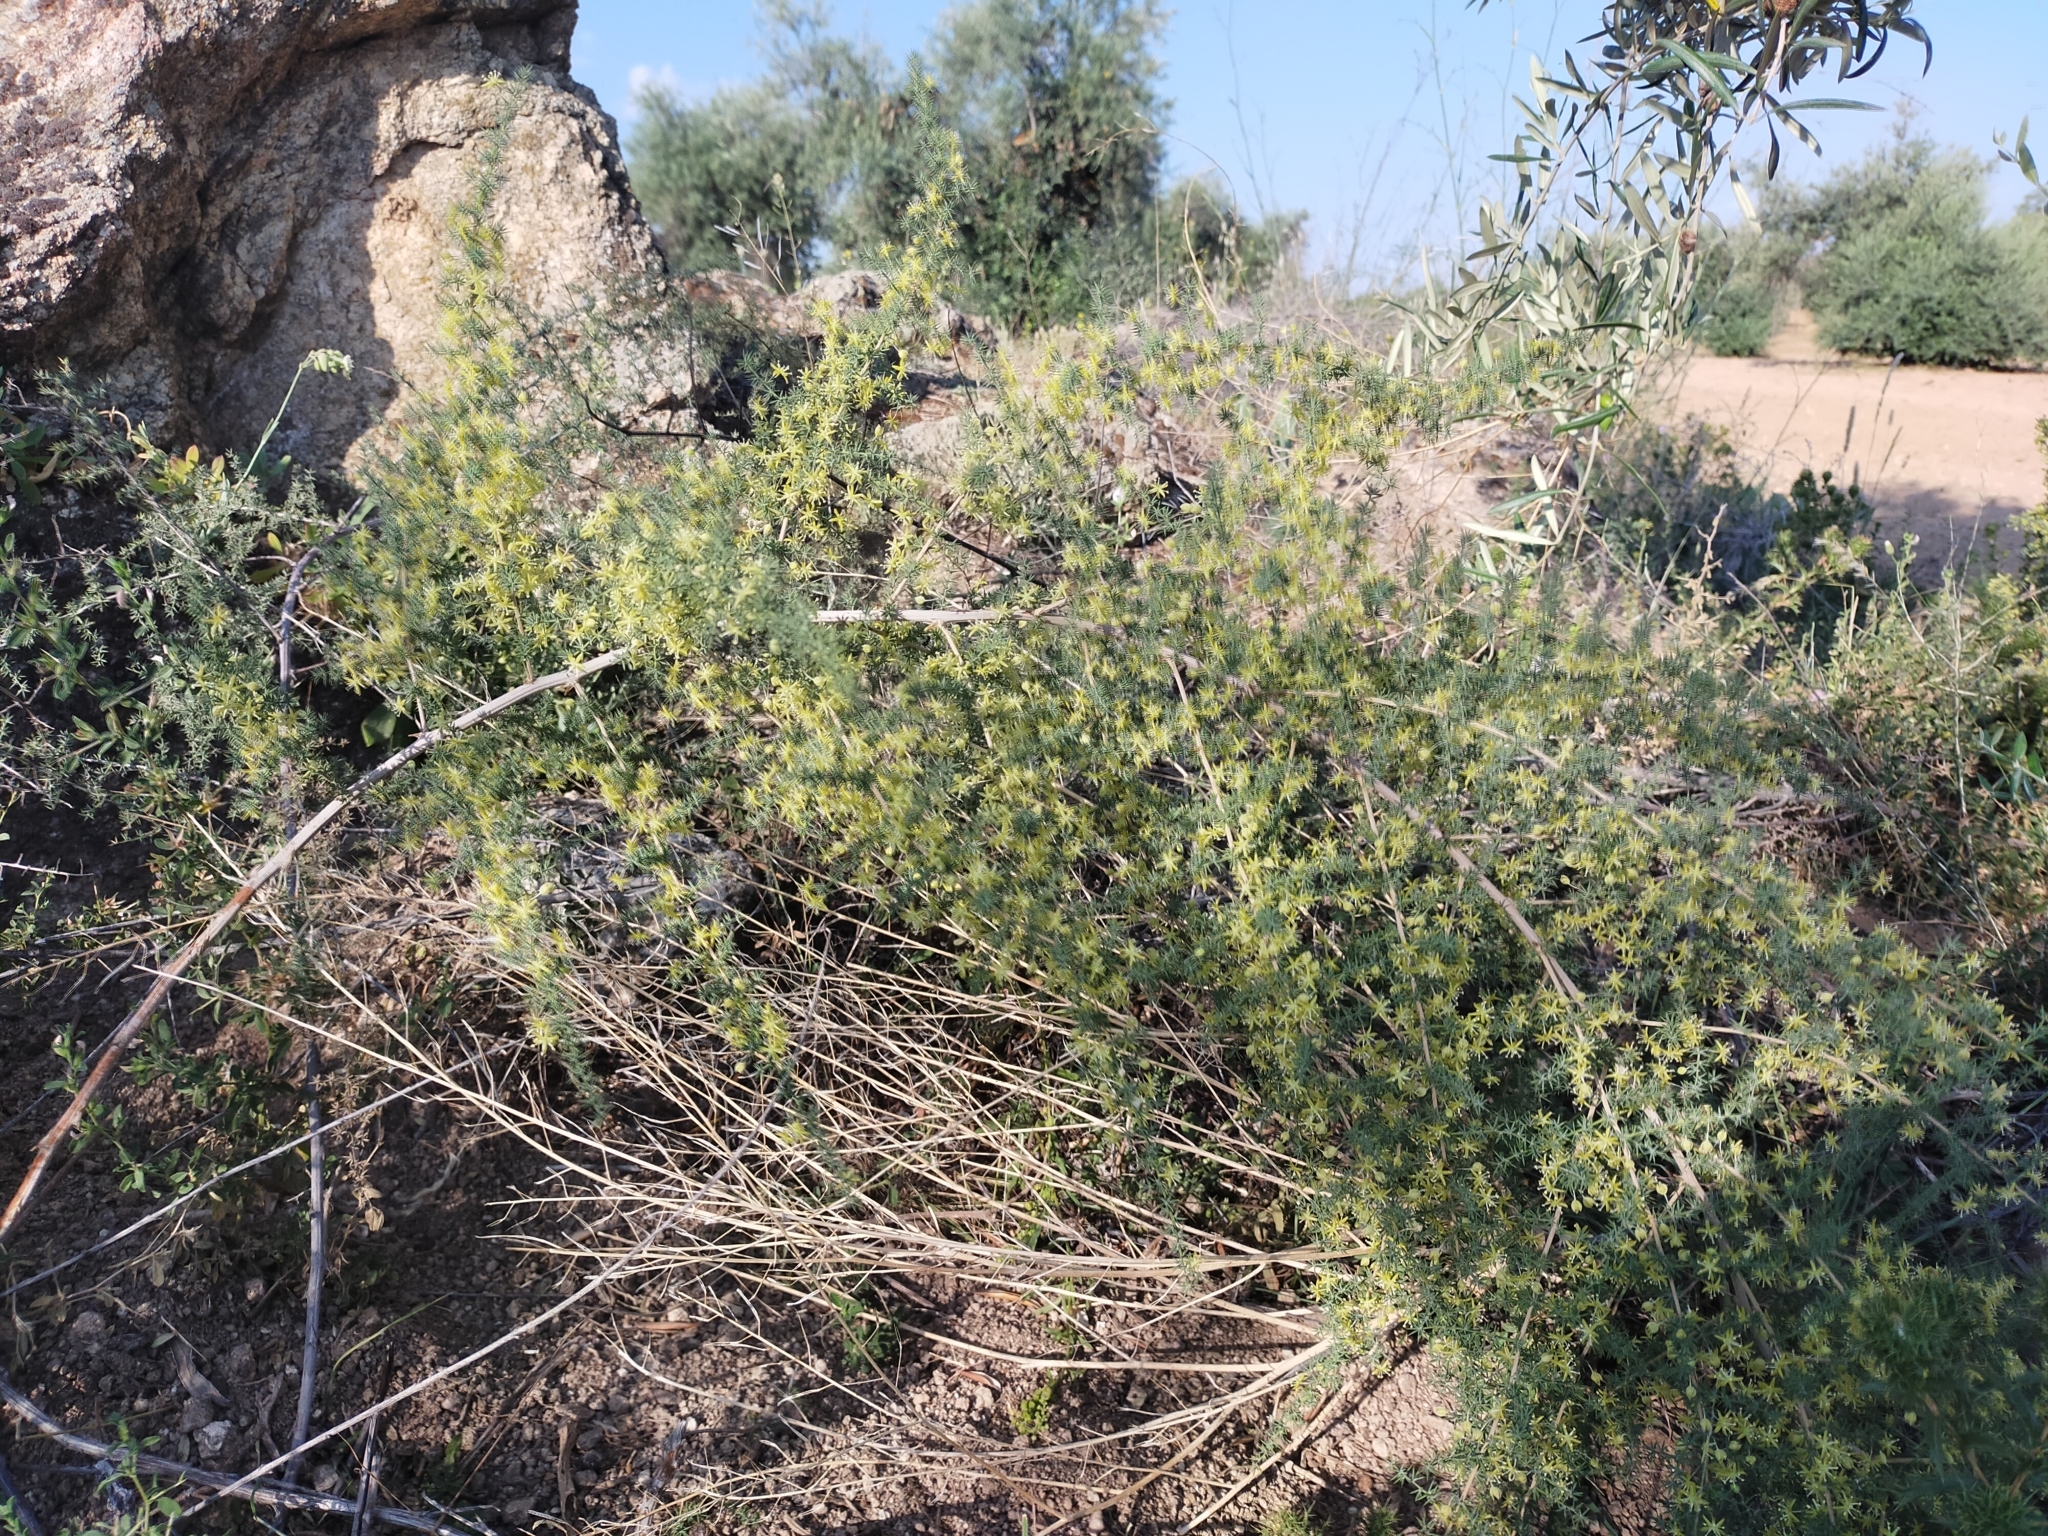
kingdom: Plantae
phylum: Tracheophyta
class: Liliopsida
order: Asparagales
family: Asparagaceae
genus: Asparagus
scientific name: Asparagus acutifolius
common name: Wild asparagus
